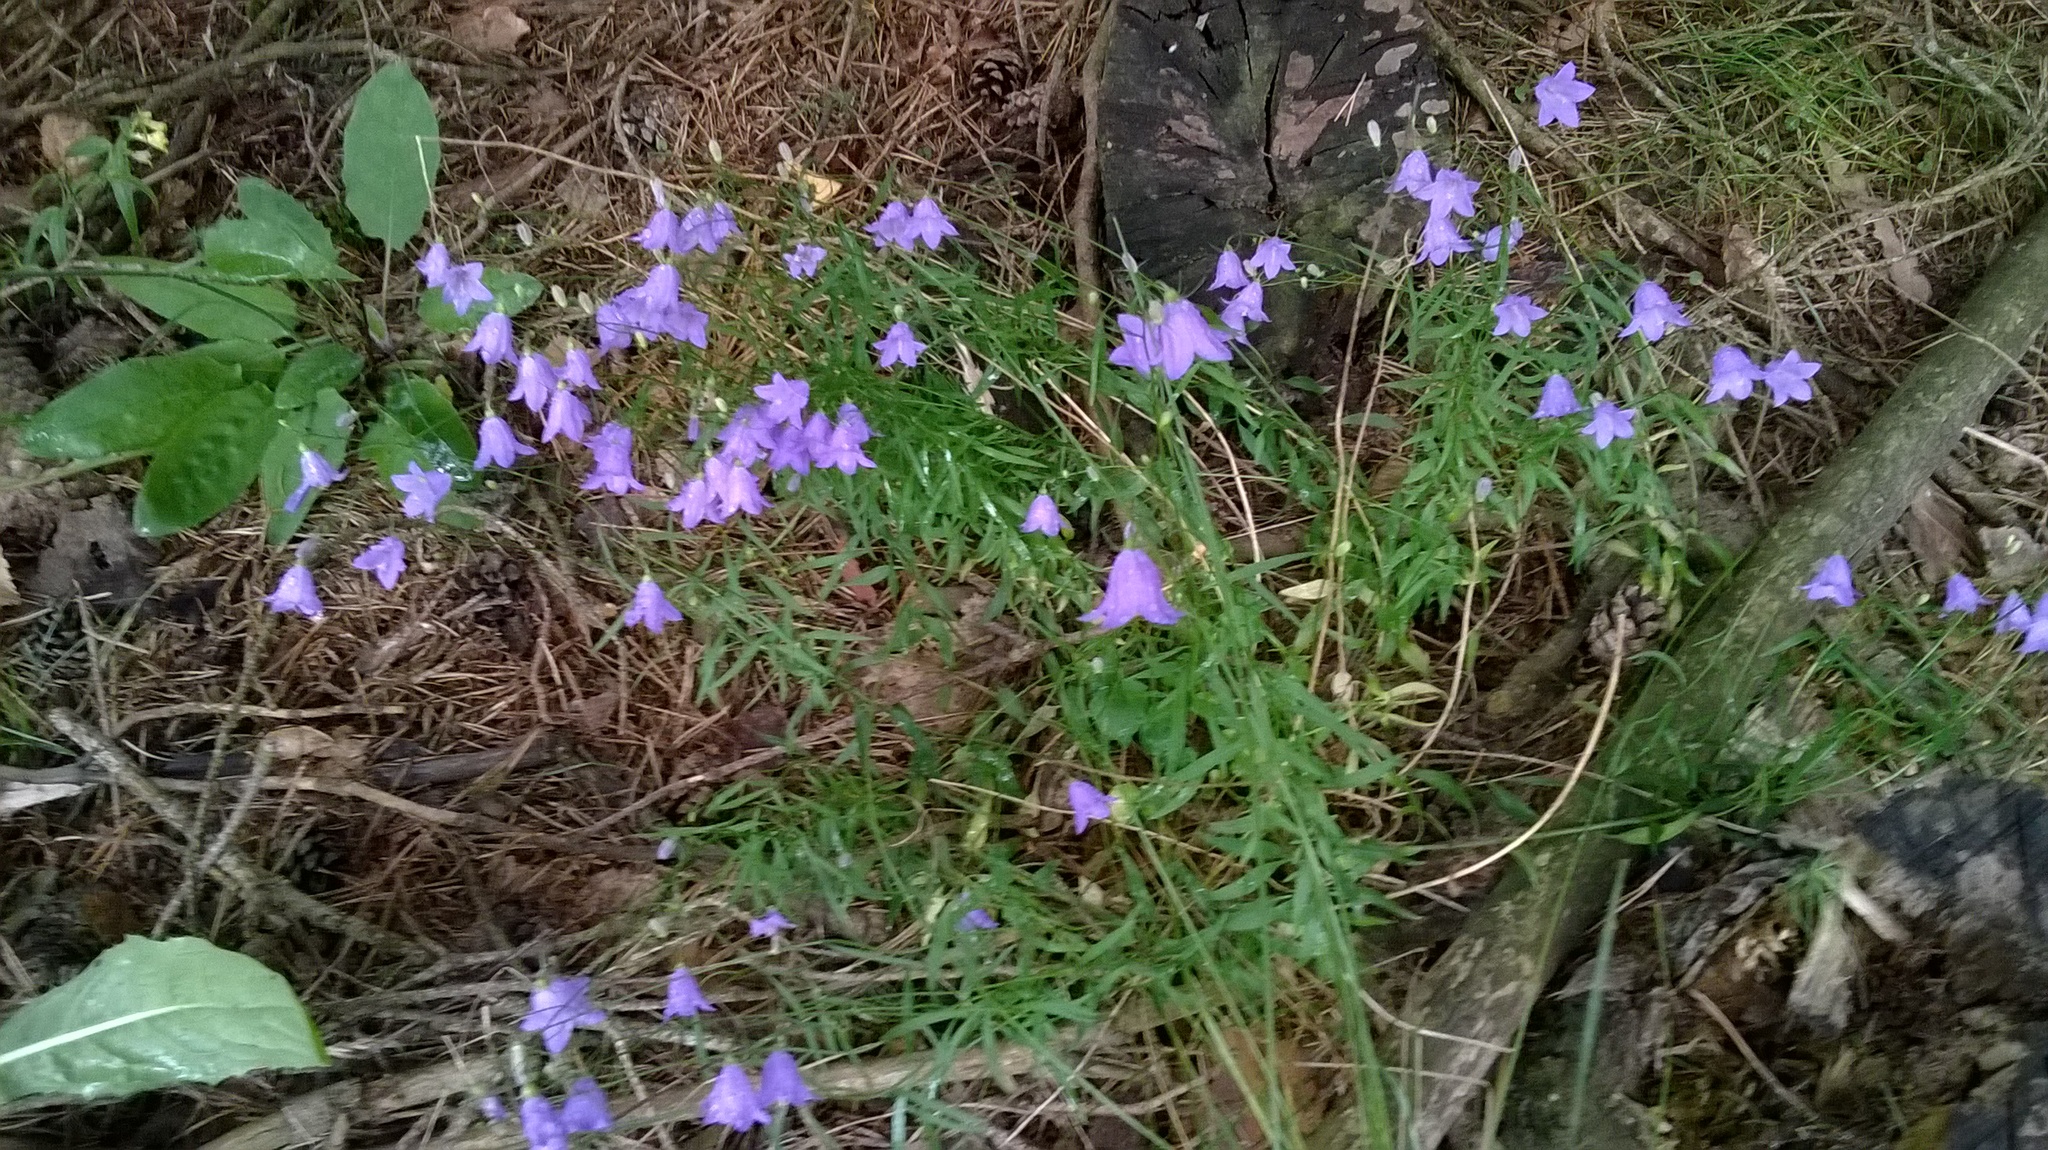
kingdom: Plantae
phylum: Tracheophyta
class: Magnoliopsida
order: Asterales
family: Campanulaceae
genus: Campanula
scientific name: Campanula rotundifolia
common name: Harebell
